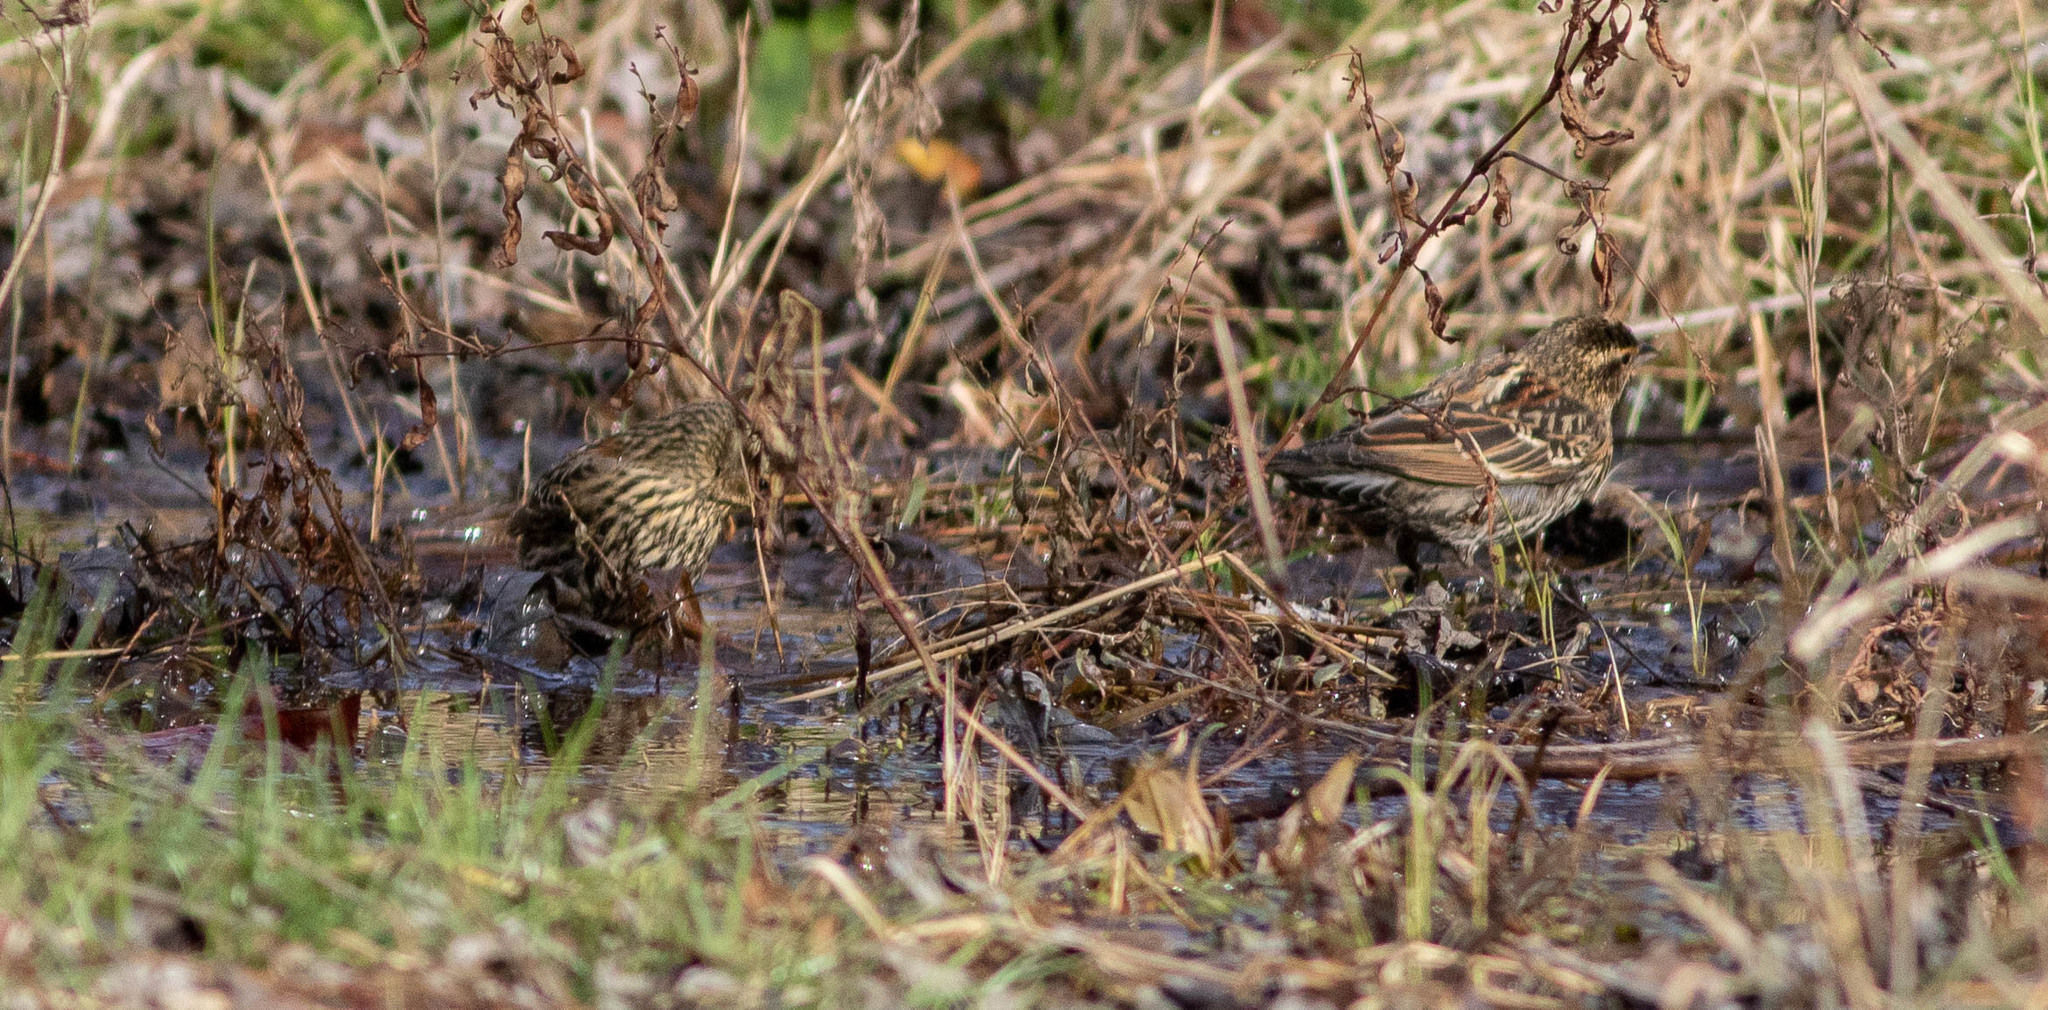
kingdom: Animalia
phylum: Chordata
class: Aves
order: Passeriformes
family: Icteridae
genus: Agelaius
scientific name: Agelaius phoeniceus
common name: Red-winged blackbird
